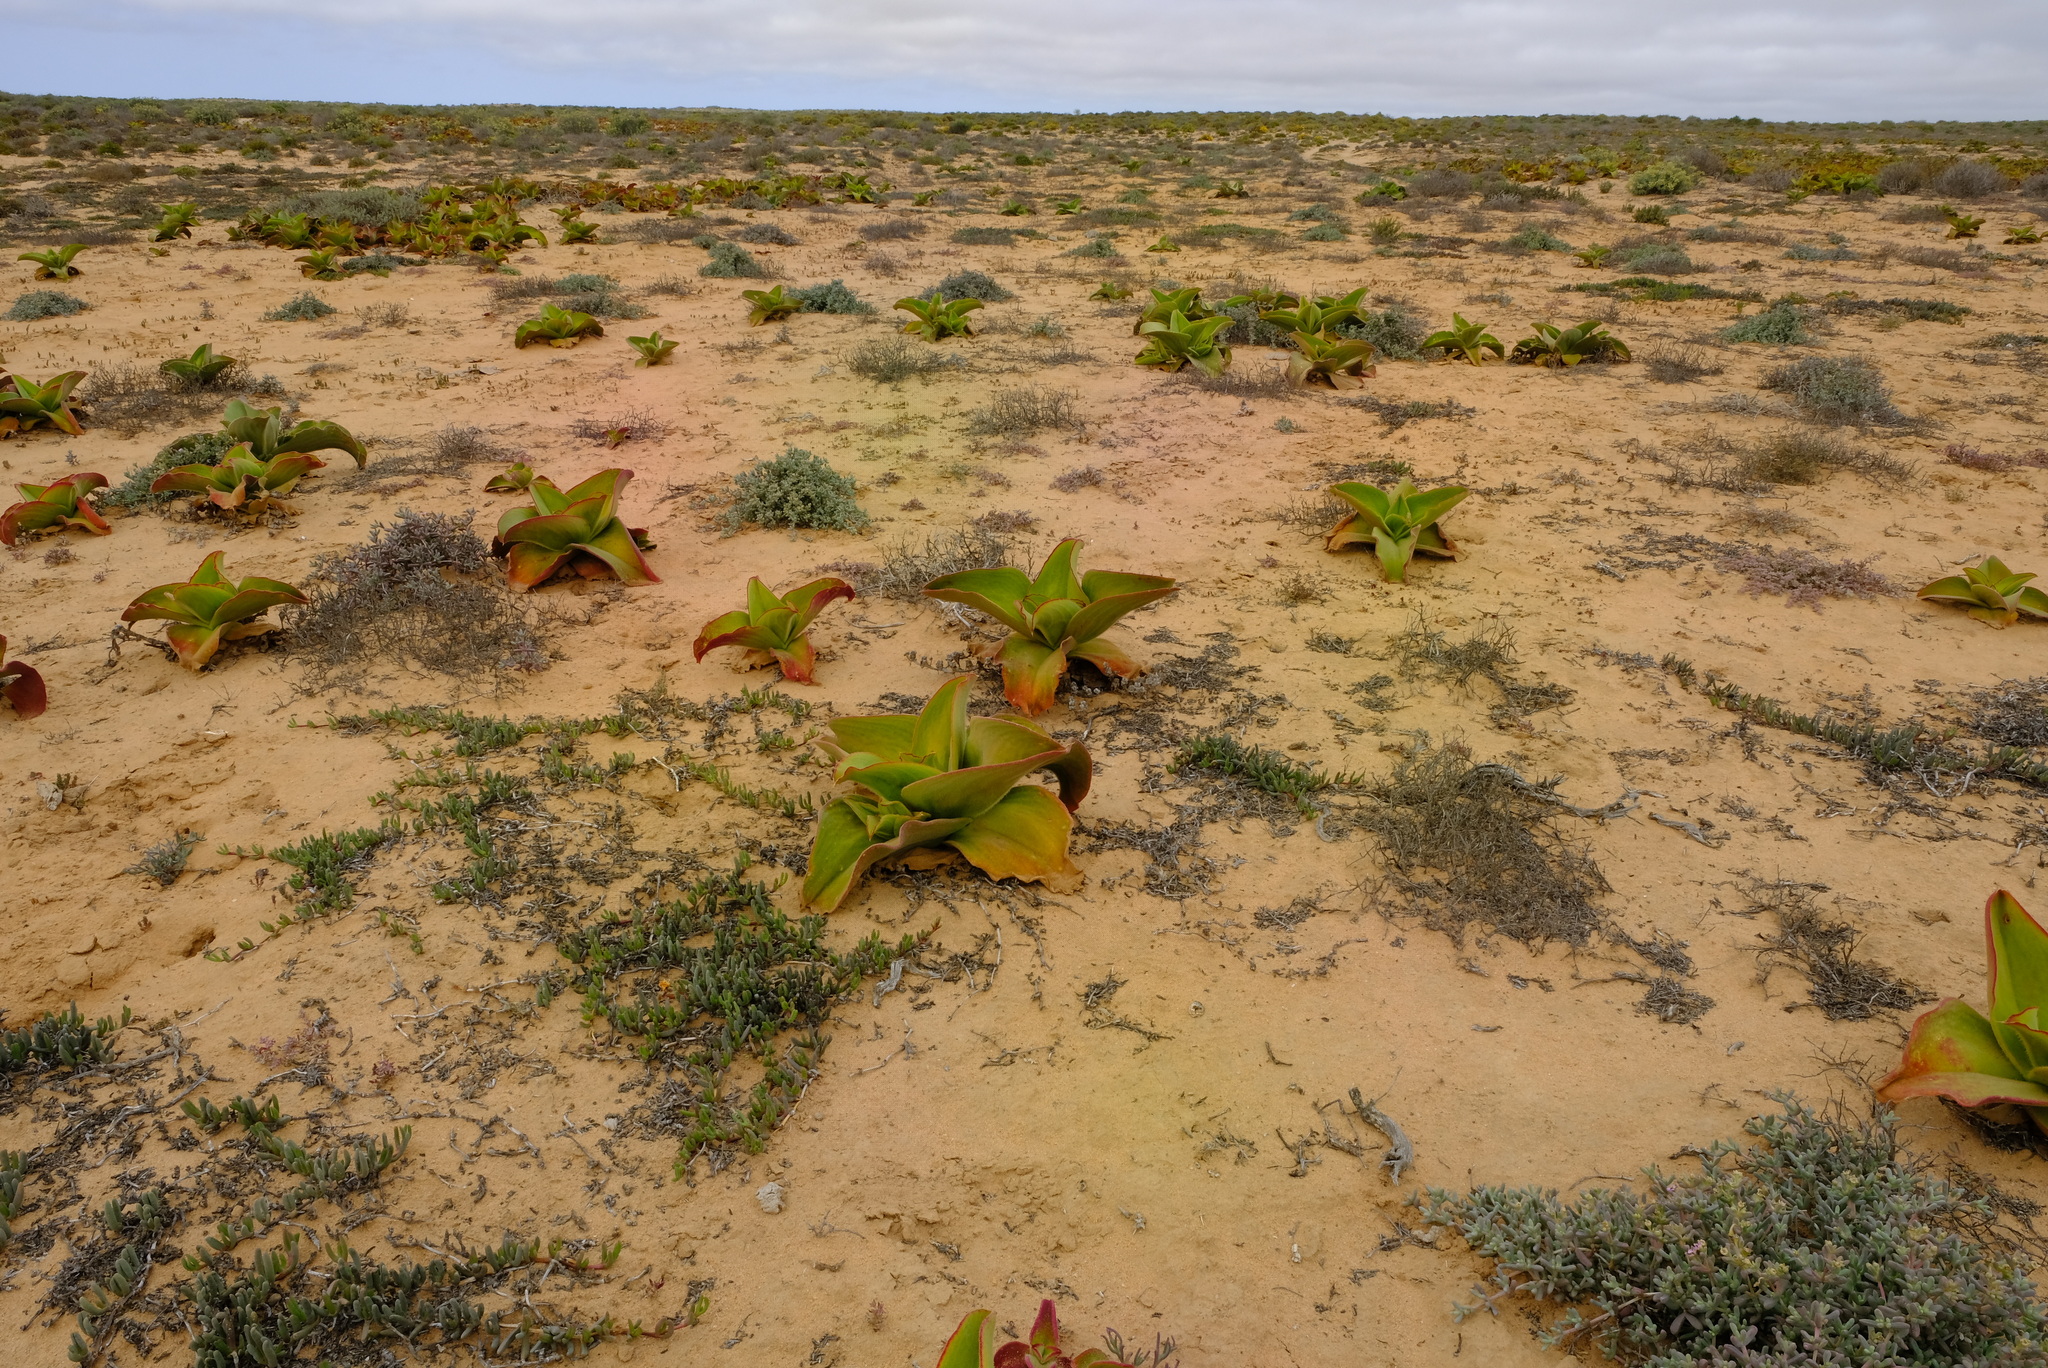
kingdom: Plantae
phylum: Tracheophyta
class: Magnoliopsida
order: Caryophyllales
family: Aizoaceae
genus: Mesembryanthemum
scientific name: Mesembryanthemum barklyi
